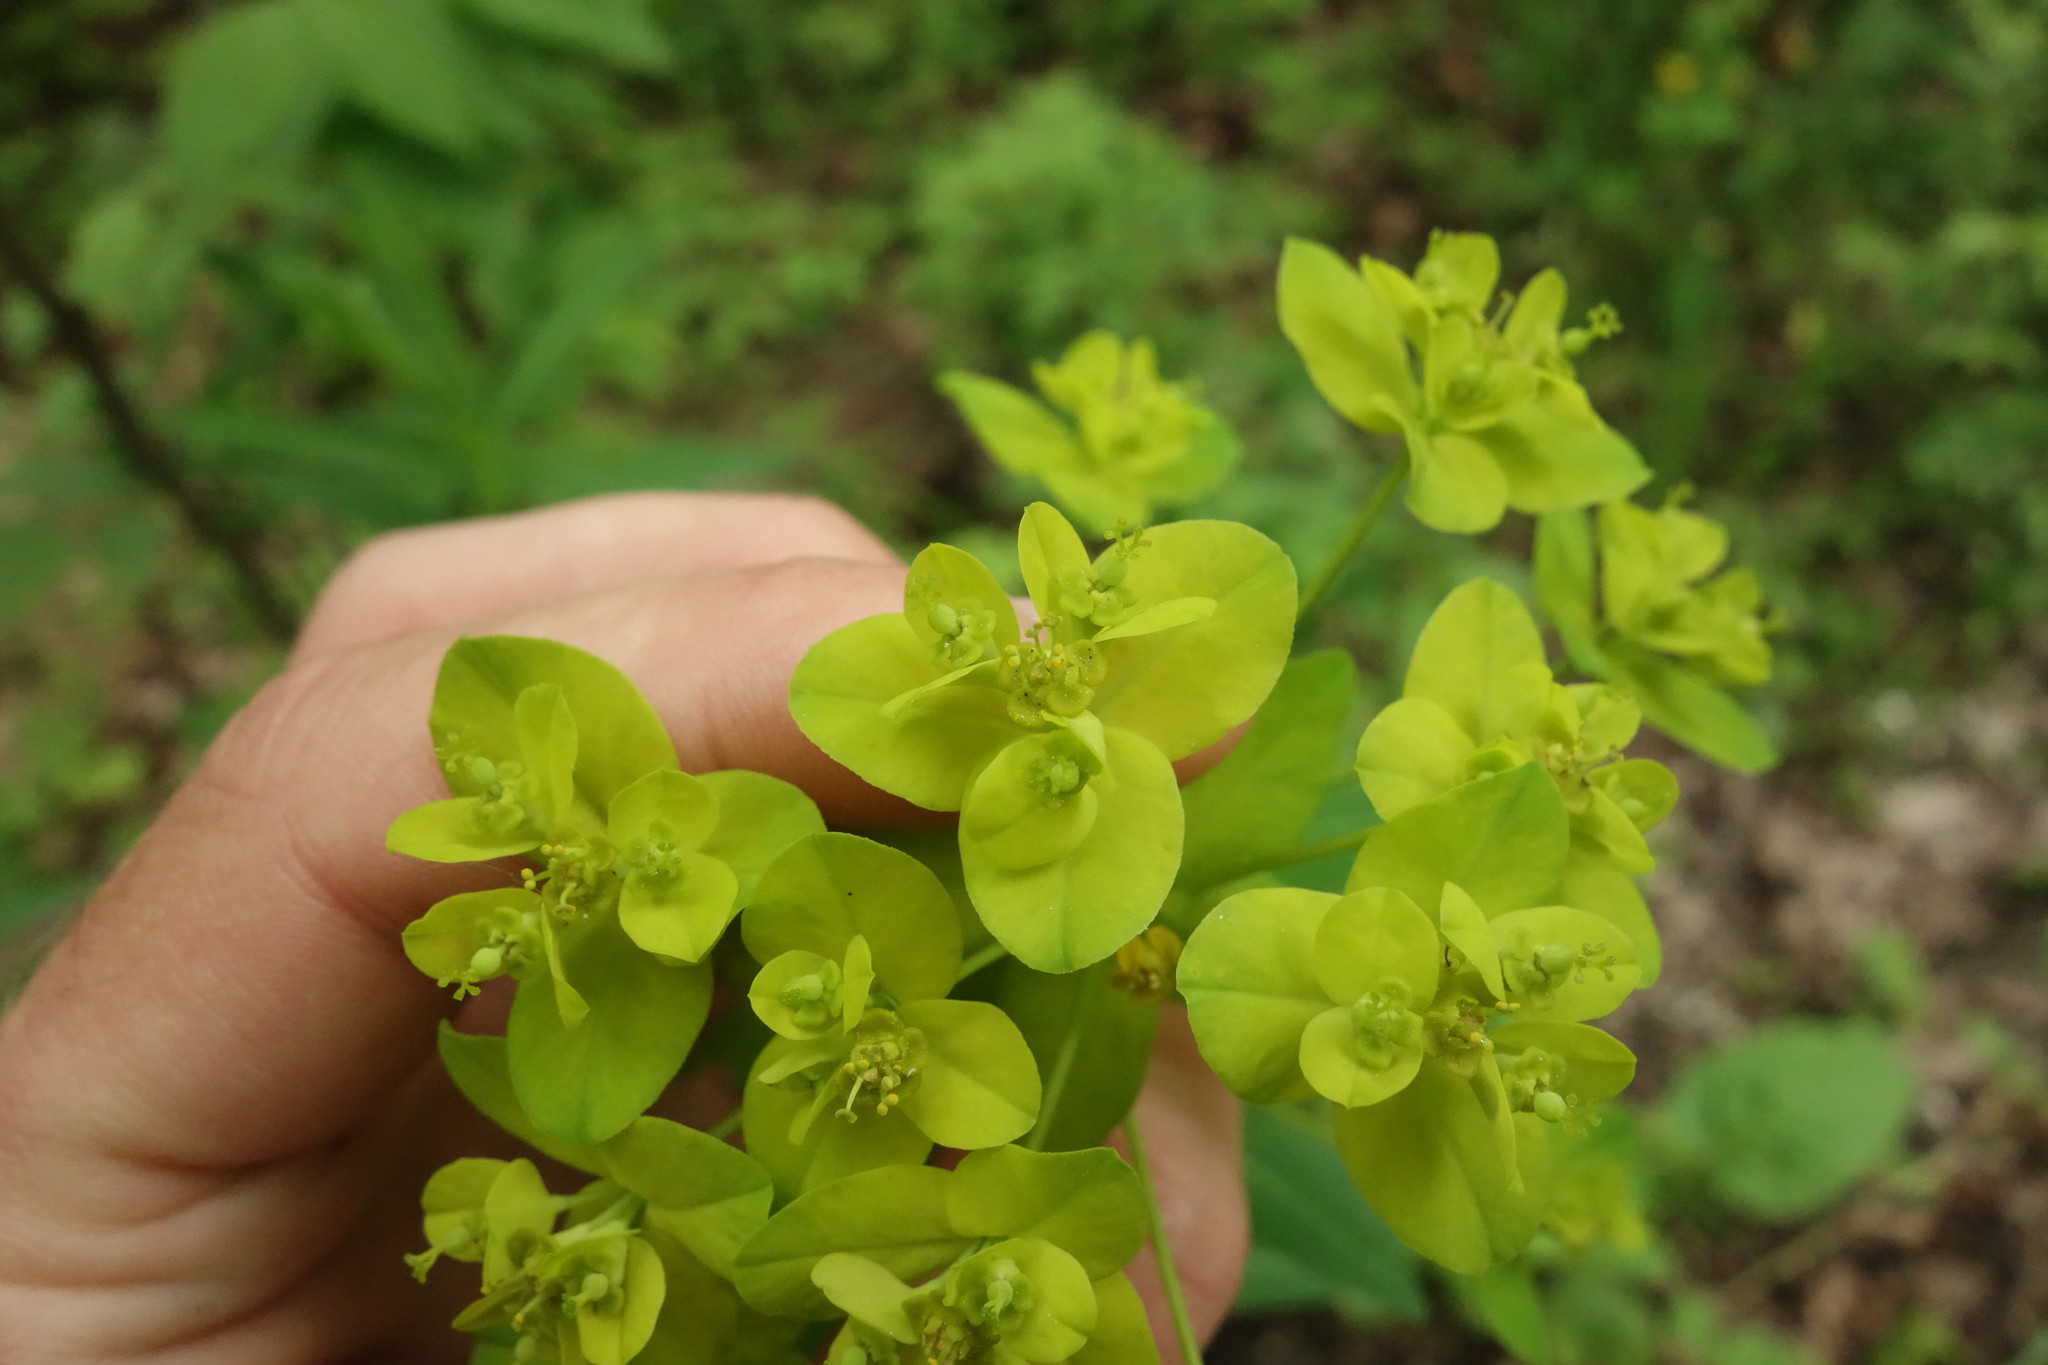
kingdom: Plantae
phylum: Tracheophyta
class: Magnoliopsida
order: Malpighiales
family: Euphorbiaceae
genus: Euphorbia
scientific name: Euphorbia semivillosa
